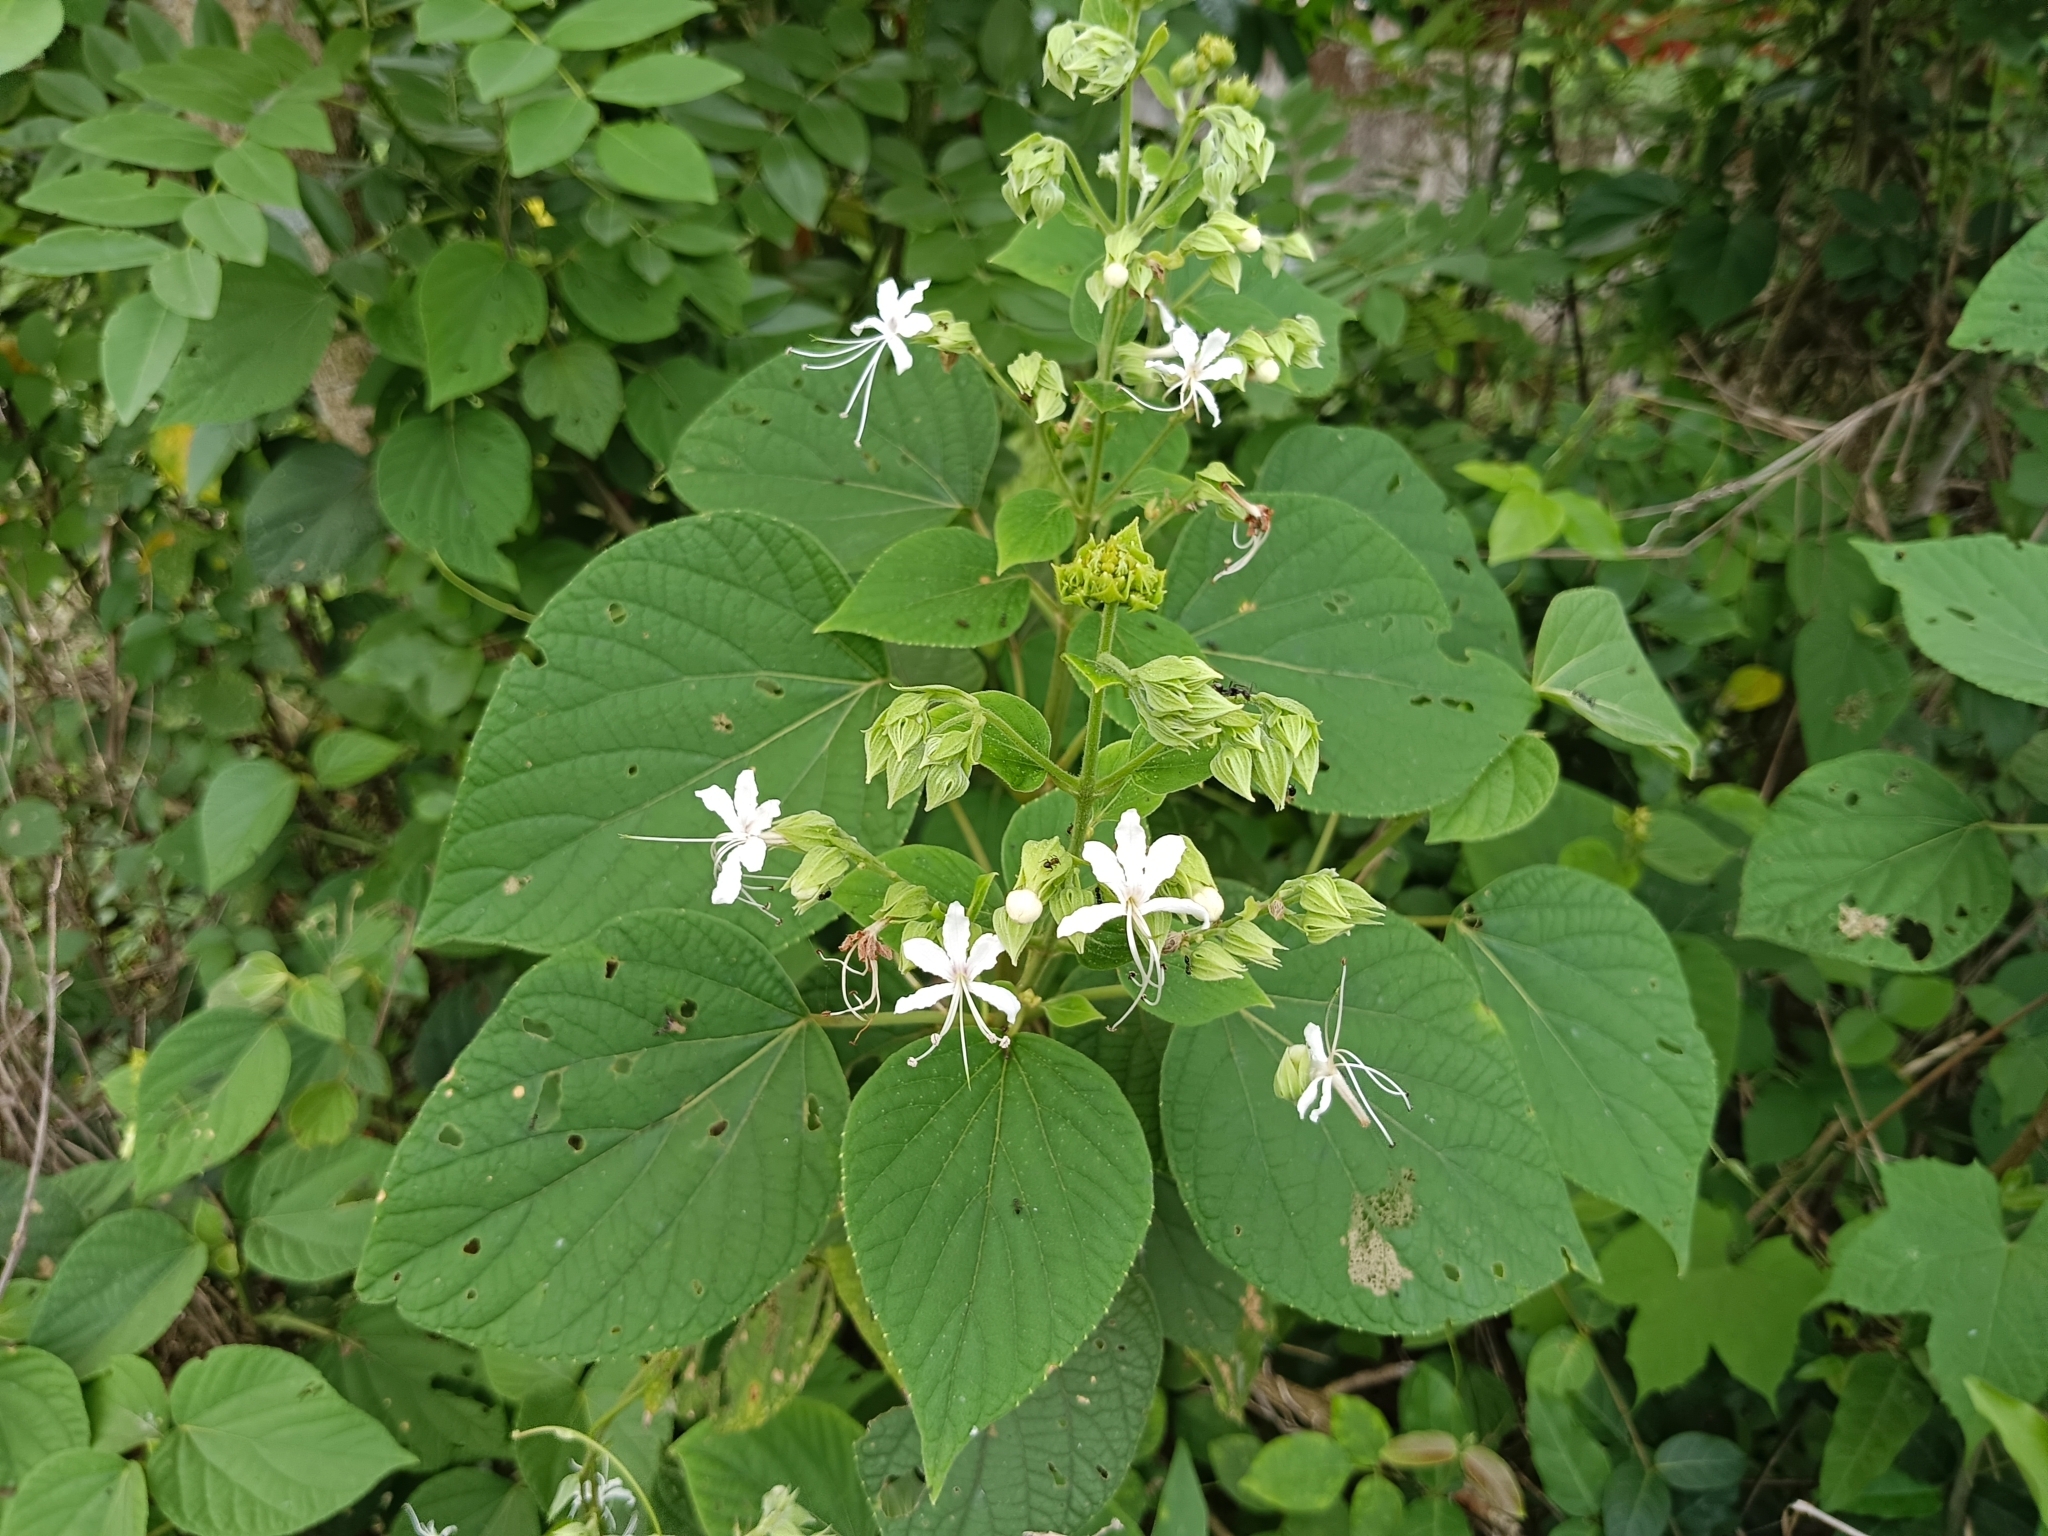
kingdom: Plantae
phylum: Tracheophyta
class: Magnoliopsida
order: Lamiales
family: Lamiaceae
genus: Clerodendrum
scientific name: Clerodendrum infortunatum
